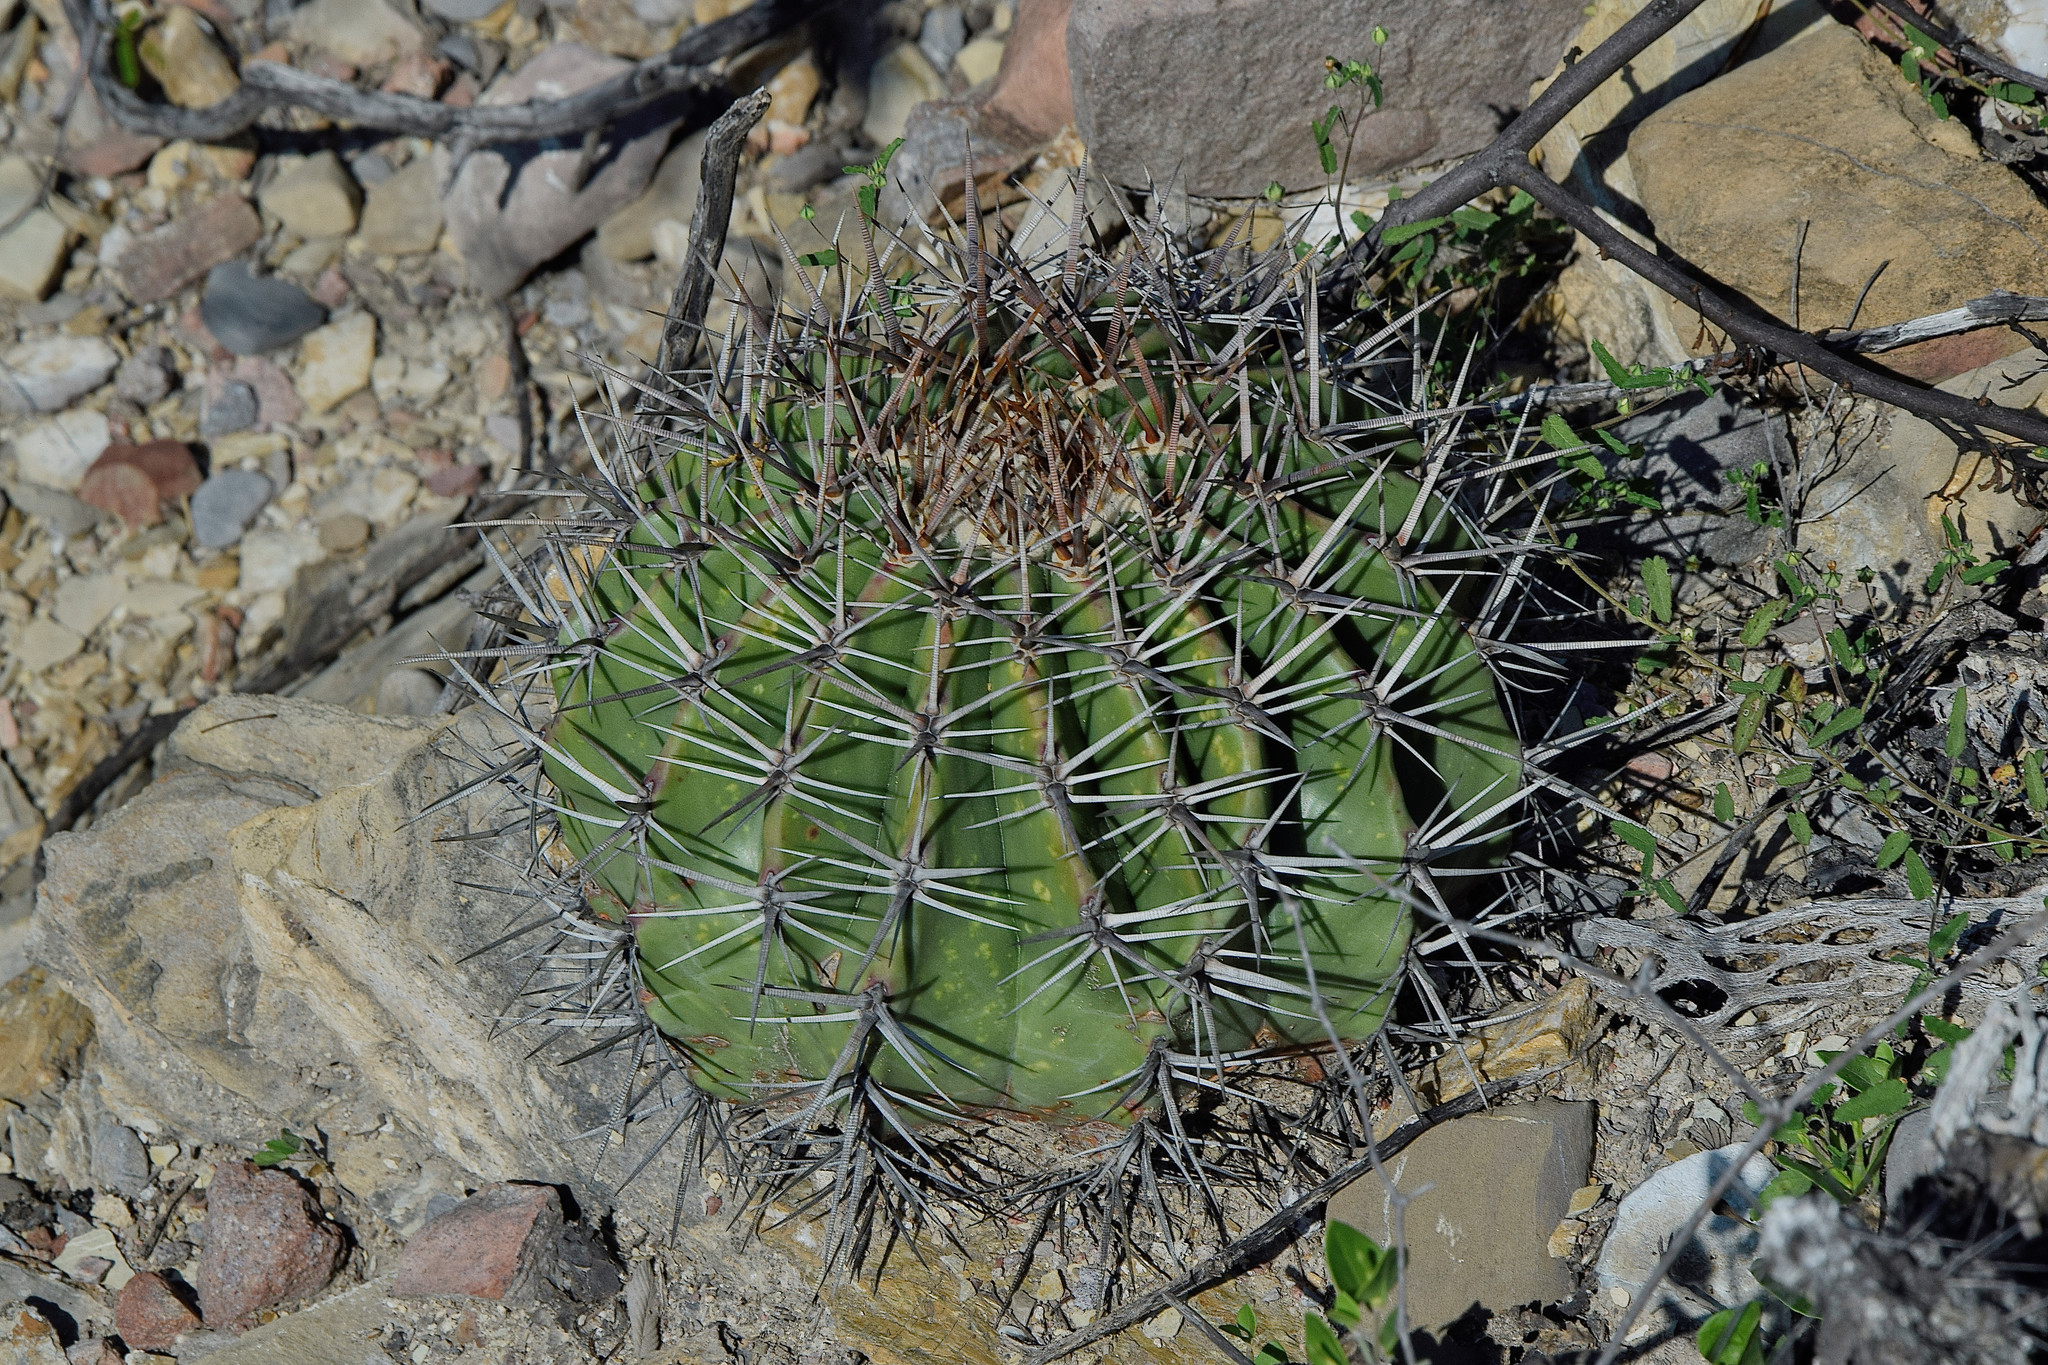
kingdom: Plantae
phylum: Tracheophyta
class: Magnoliopsida
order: Caryophyllales
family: Cactaceae
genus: Echinocactus
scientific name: Echinocactus platyacanthus
